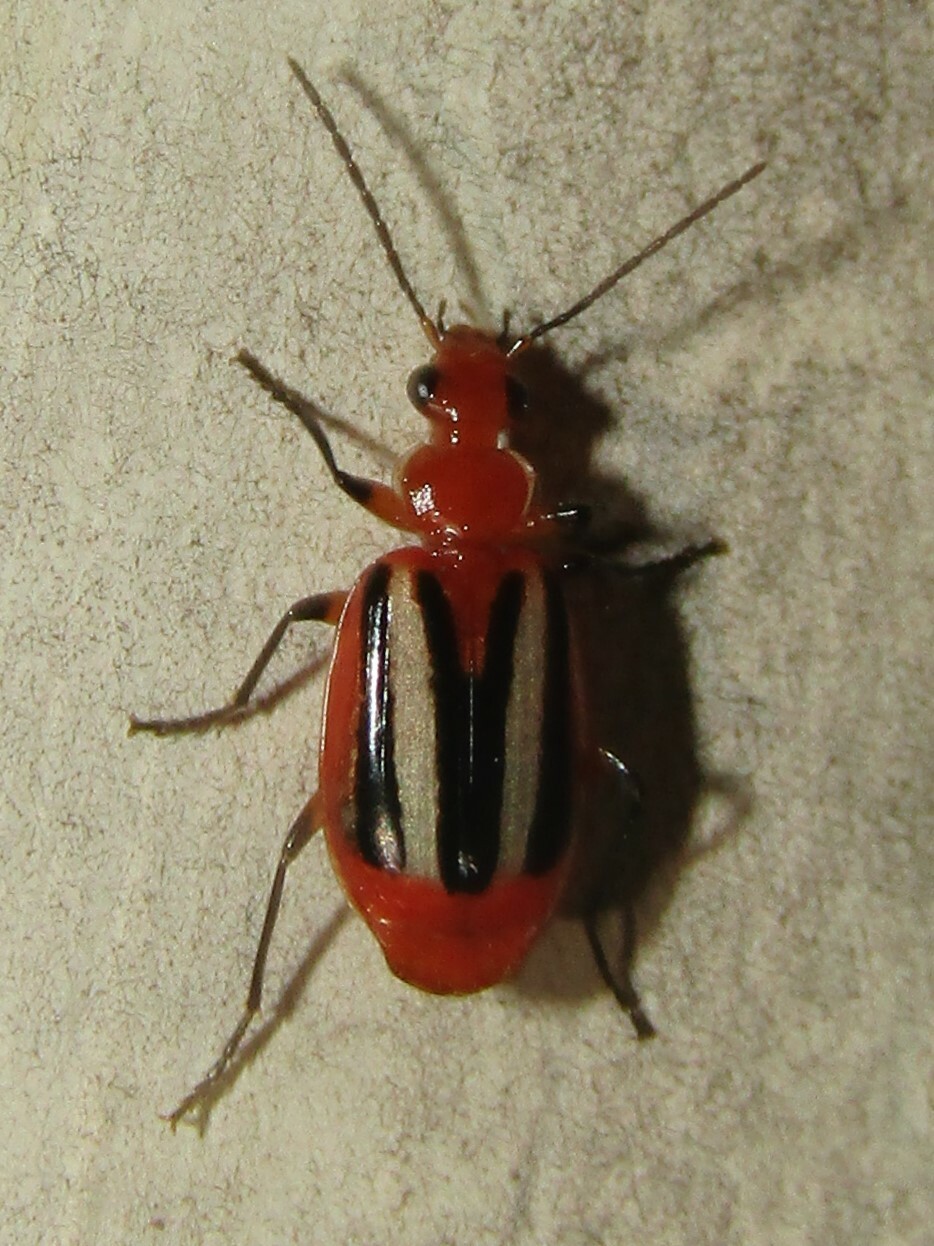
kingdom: Animalia
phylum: Arthropoda
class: Insecta
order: Coleoptera
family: Carabidae
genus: Lebia
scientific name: Lebia vittata
